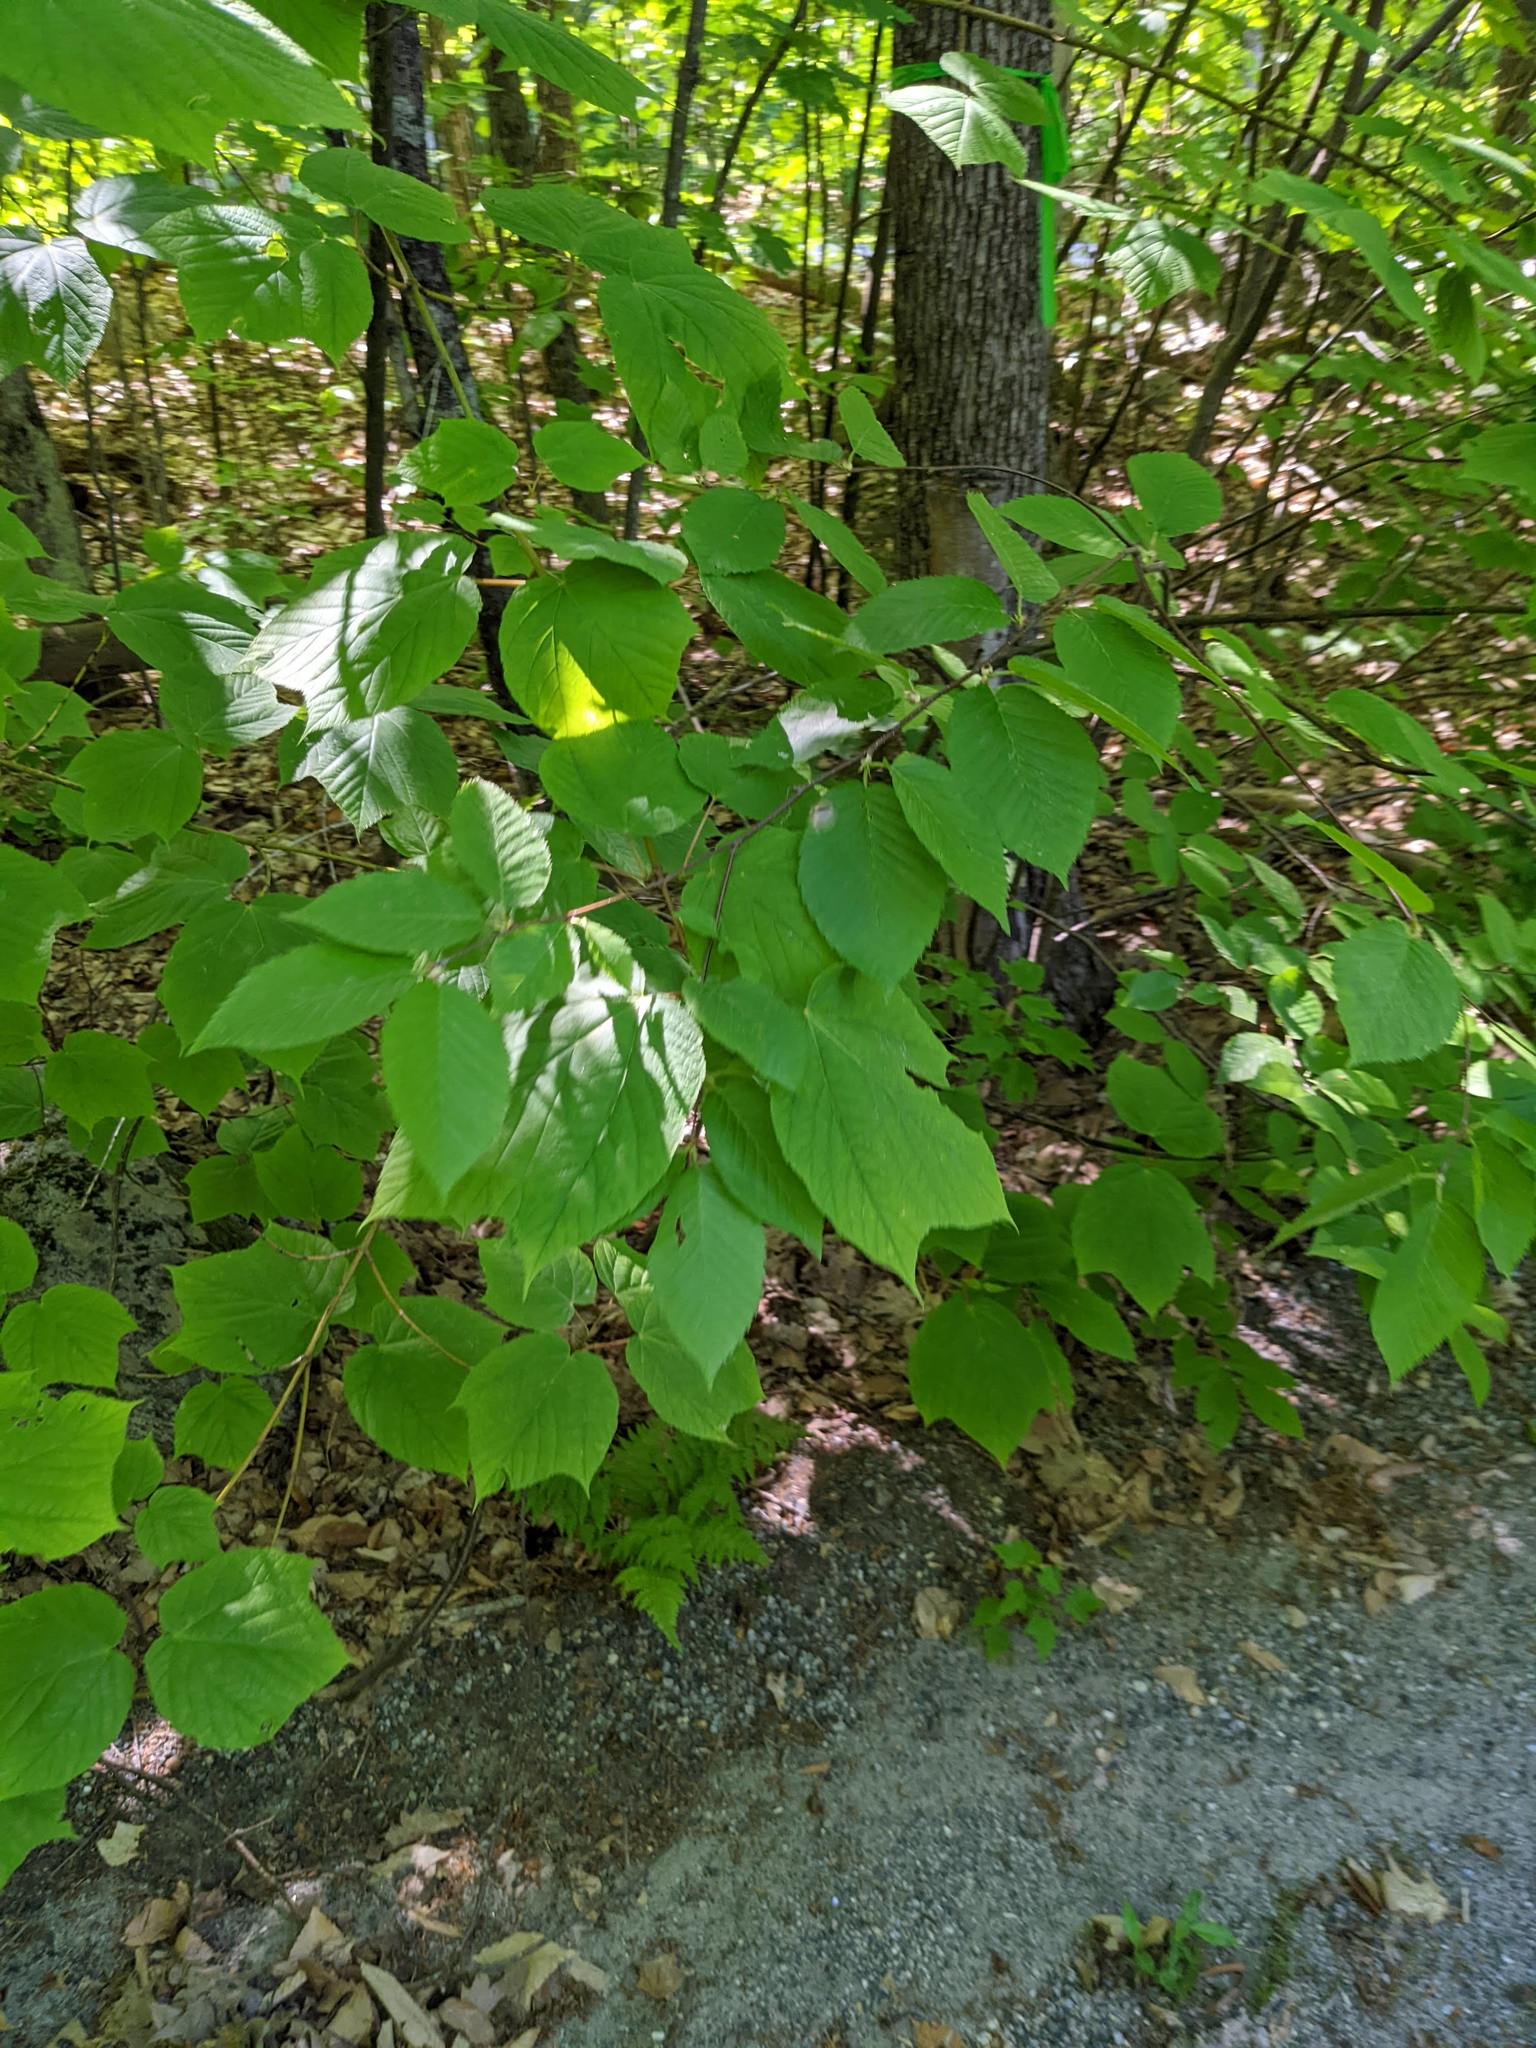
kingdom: Plantae
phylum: Tracheophyta
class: Magnoliopsida
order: Sapindales
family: Sapindaceae
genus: Acer
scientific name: Acer pensylvanicum
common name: Moosewood
